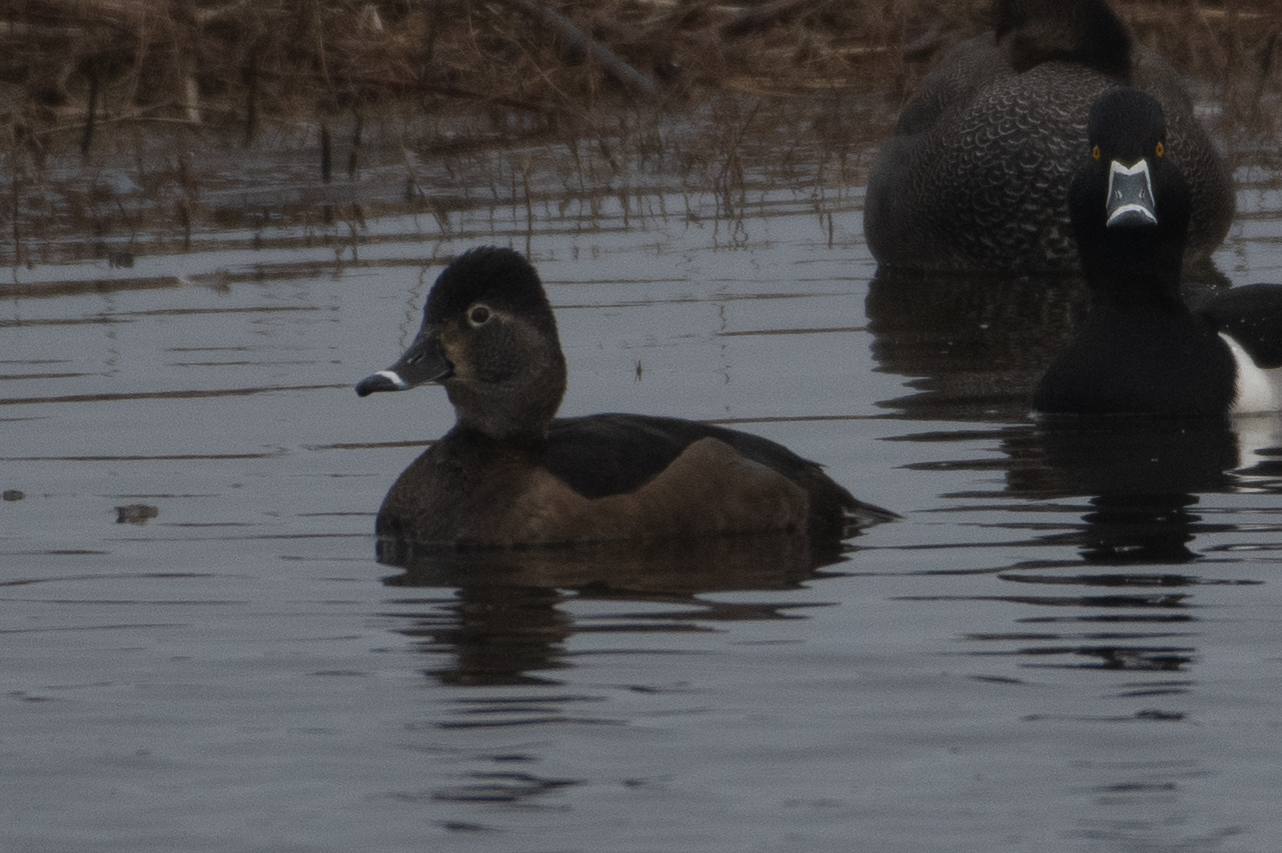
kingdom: Animalia
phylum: Chordata
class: Aves
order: Anseriformes
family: Anatidae
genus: Aythya
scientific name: Aythya collaris
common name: Ring-necked duck
